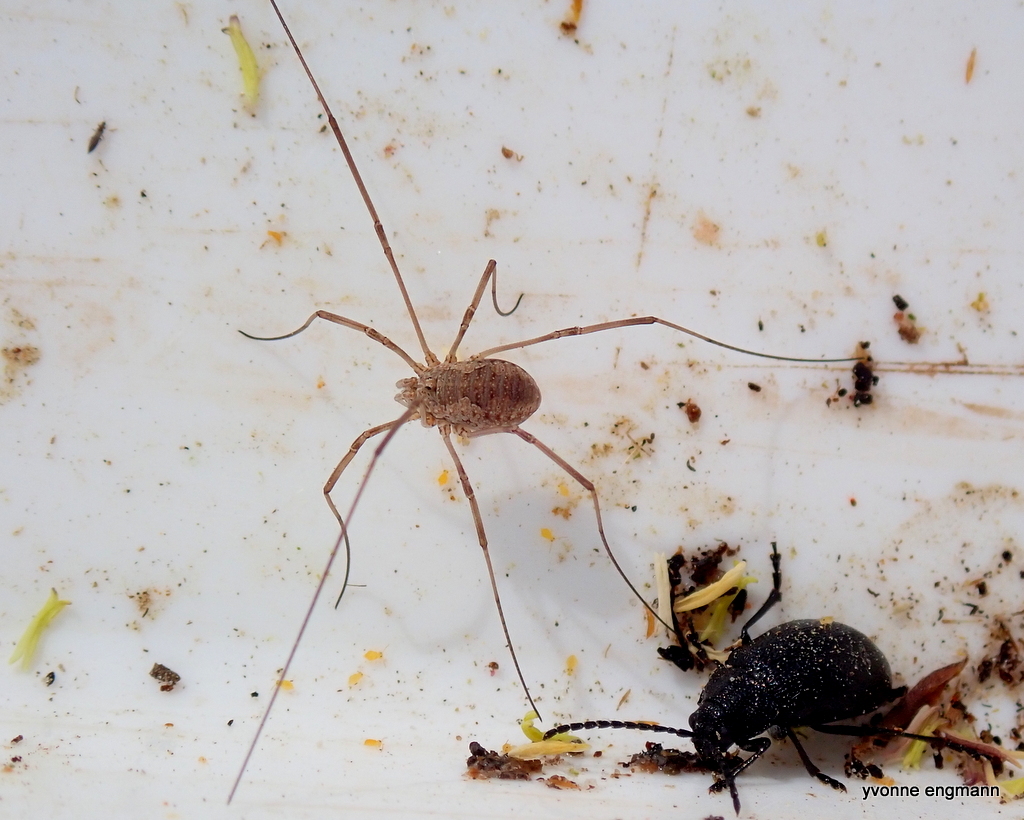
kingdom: Animalia
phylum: Arthropoda
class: Arachnida
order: Opiliones
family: Phalangiidae
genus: Phalangium
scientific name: Phalangium opilio
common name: Daddy longleg
